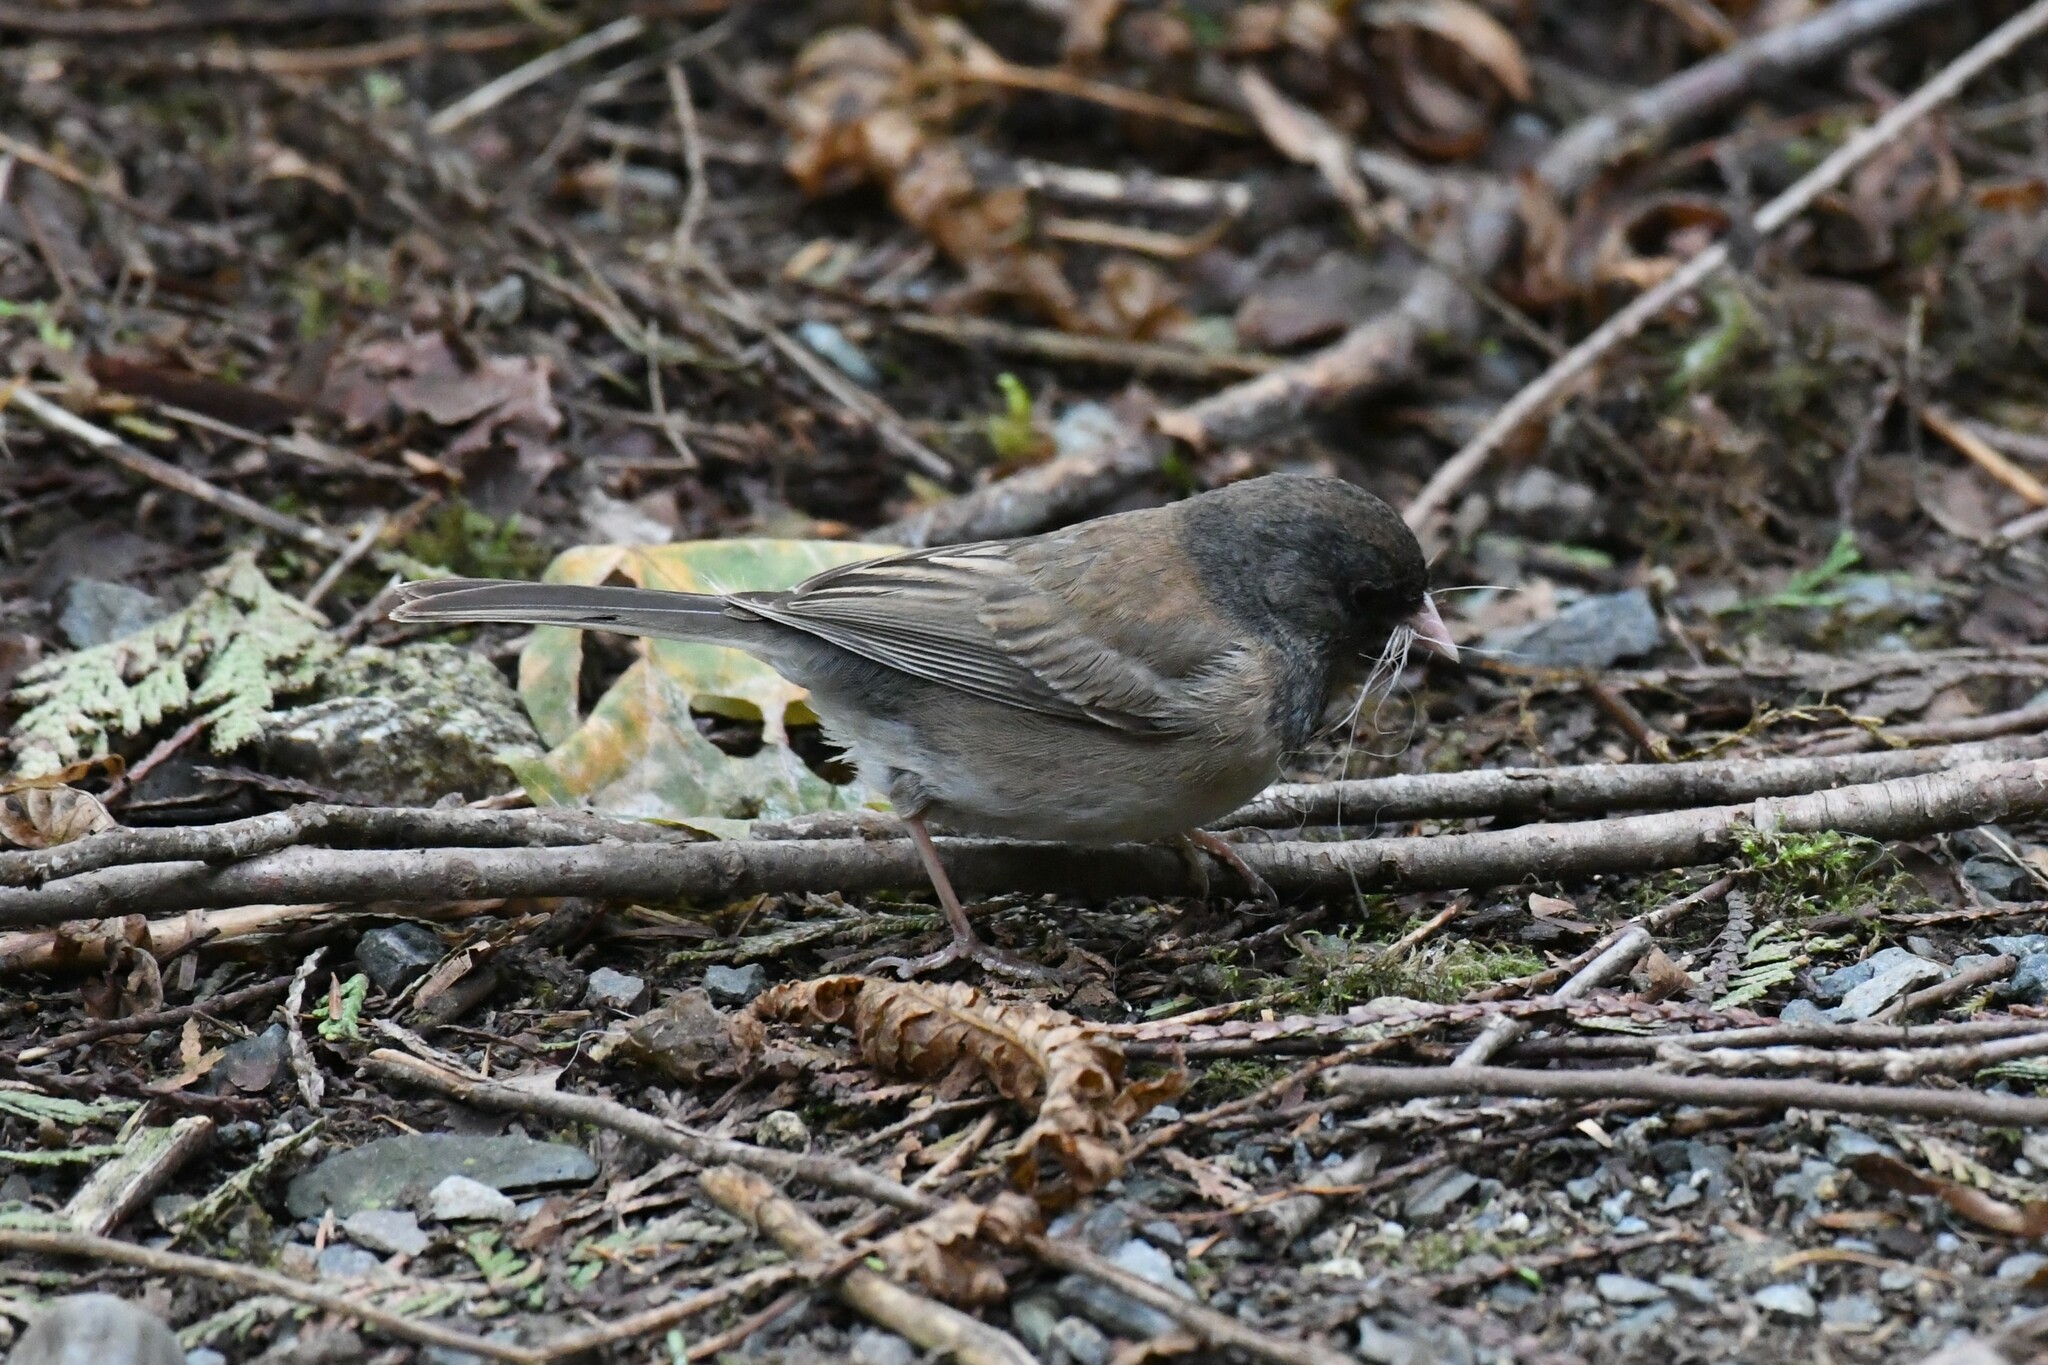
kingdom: Animalia
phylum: Chordata
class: Aves
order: Passeriformes
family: Passerellidae
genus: Junco
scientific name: Junco hyemalis
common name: Dark-eyed junco
